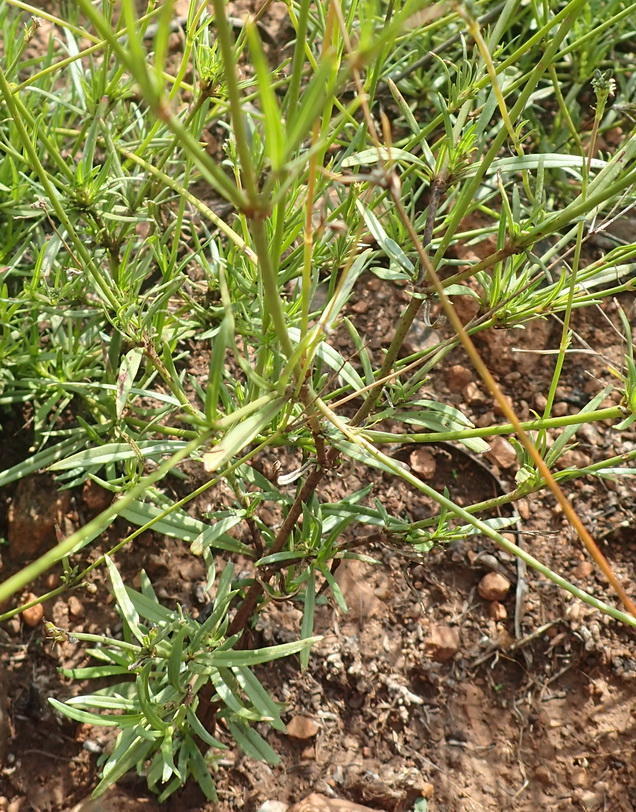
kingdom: Plantae
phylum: Tracheophyta
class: Magnoliopsida
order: Gentianales
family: Rubiaceae
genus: Kohautia
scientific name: Kohautia amatymbica
